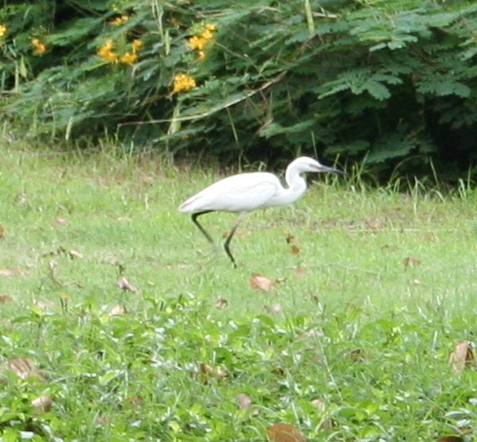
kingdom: Animalia
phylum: Chordata
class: Aves
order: Pelecaniformes
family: Ardeidae
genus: Egretta
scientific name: Egretta garzetta
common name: Little egret
